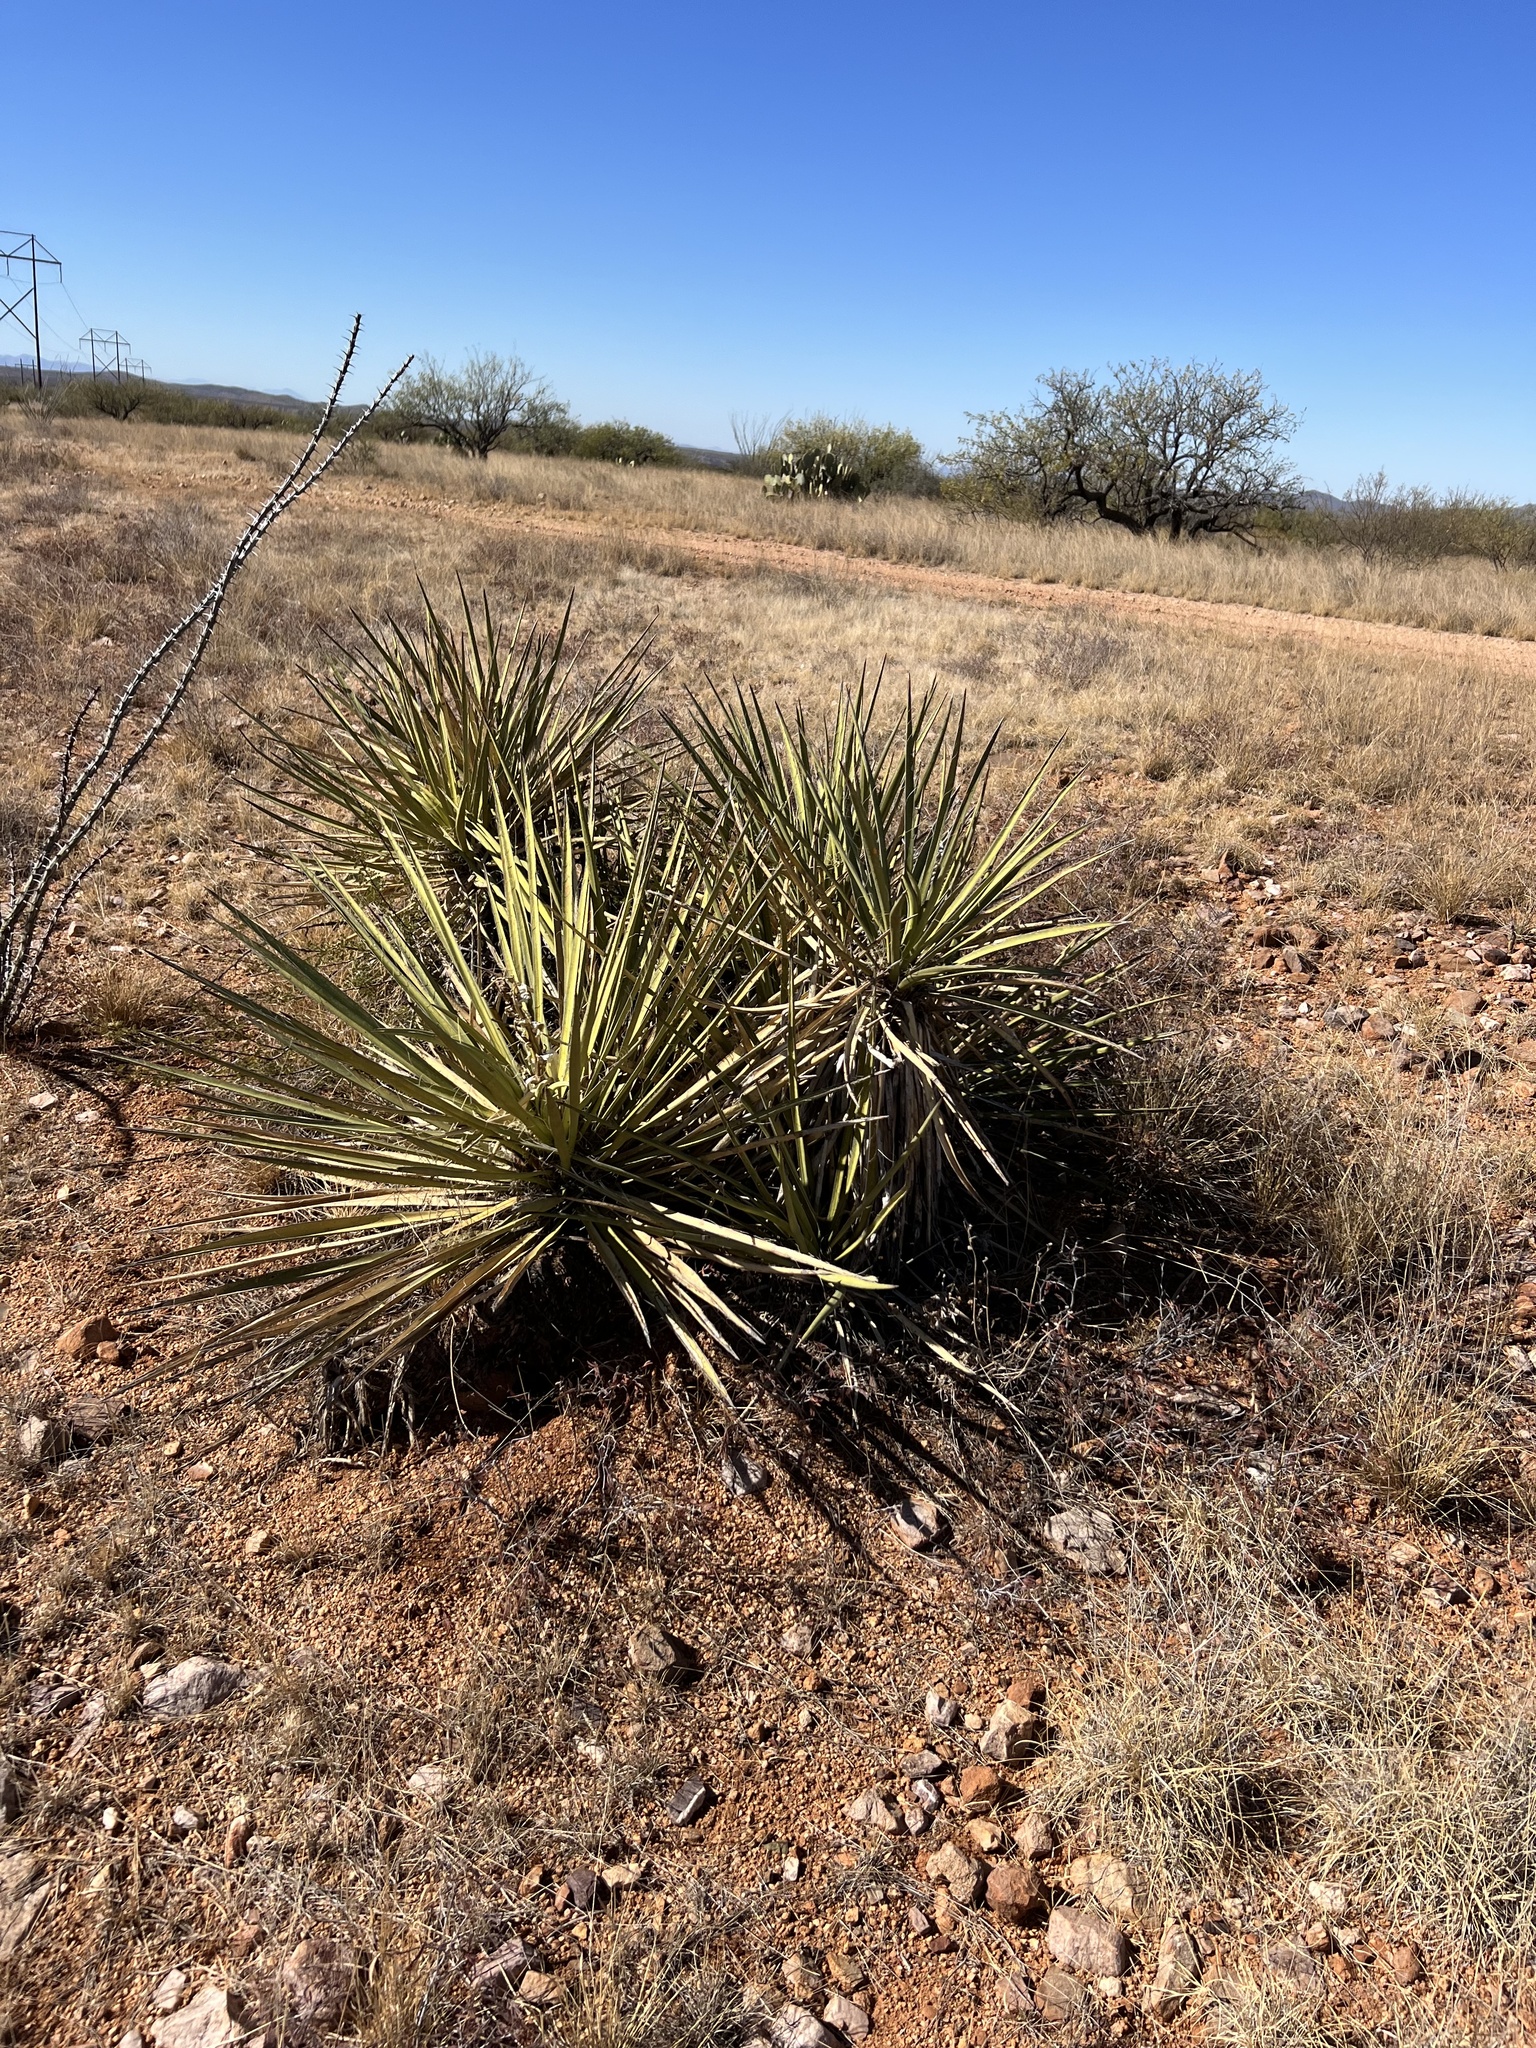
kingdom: Plantae
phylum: Tracheophyta
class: Liliopsida
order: Asparagales
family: Asparagaceae
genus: Yucca
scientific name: Yucca baccata
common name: Banana yucca
